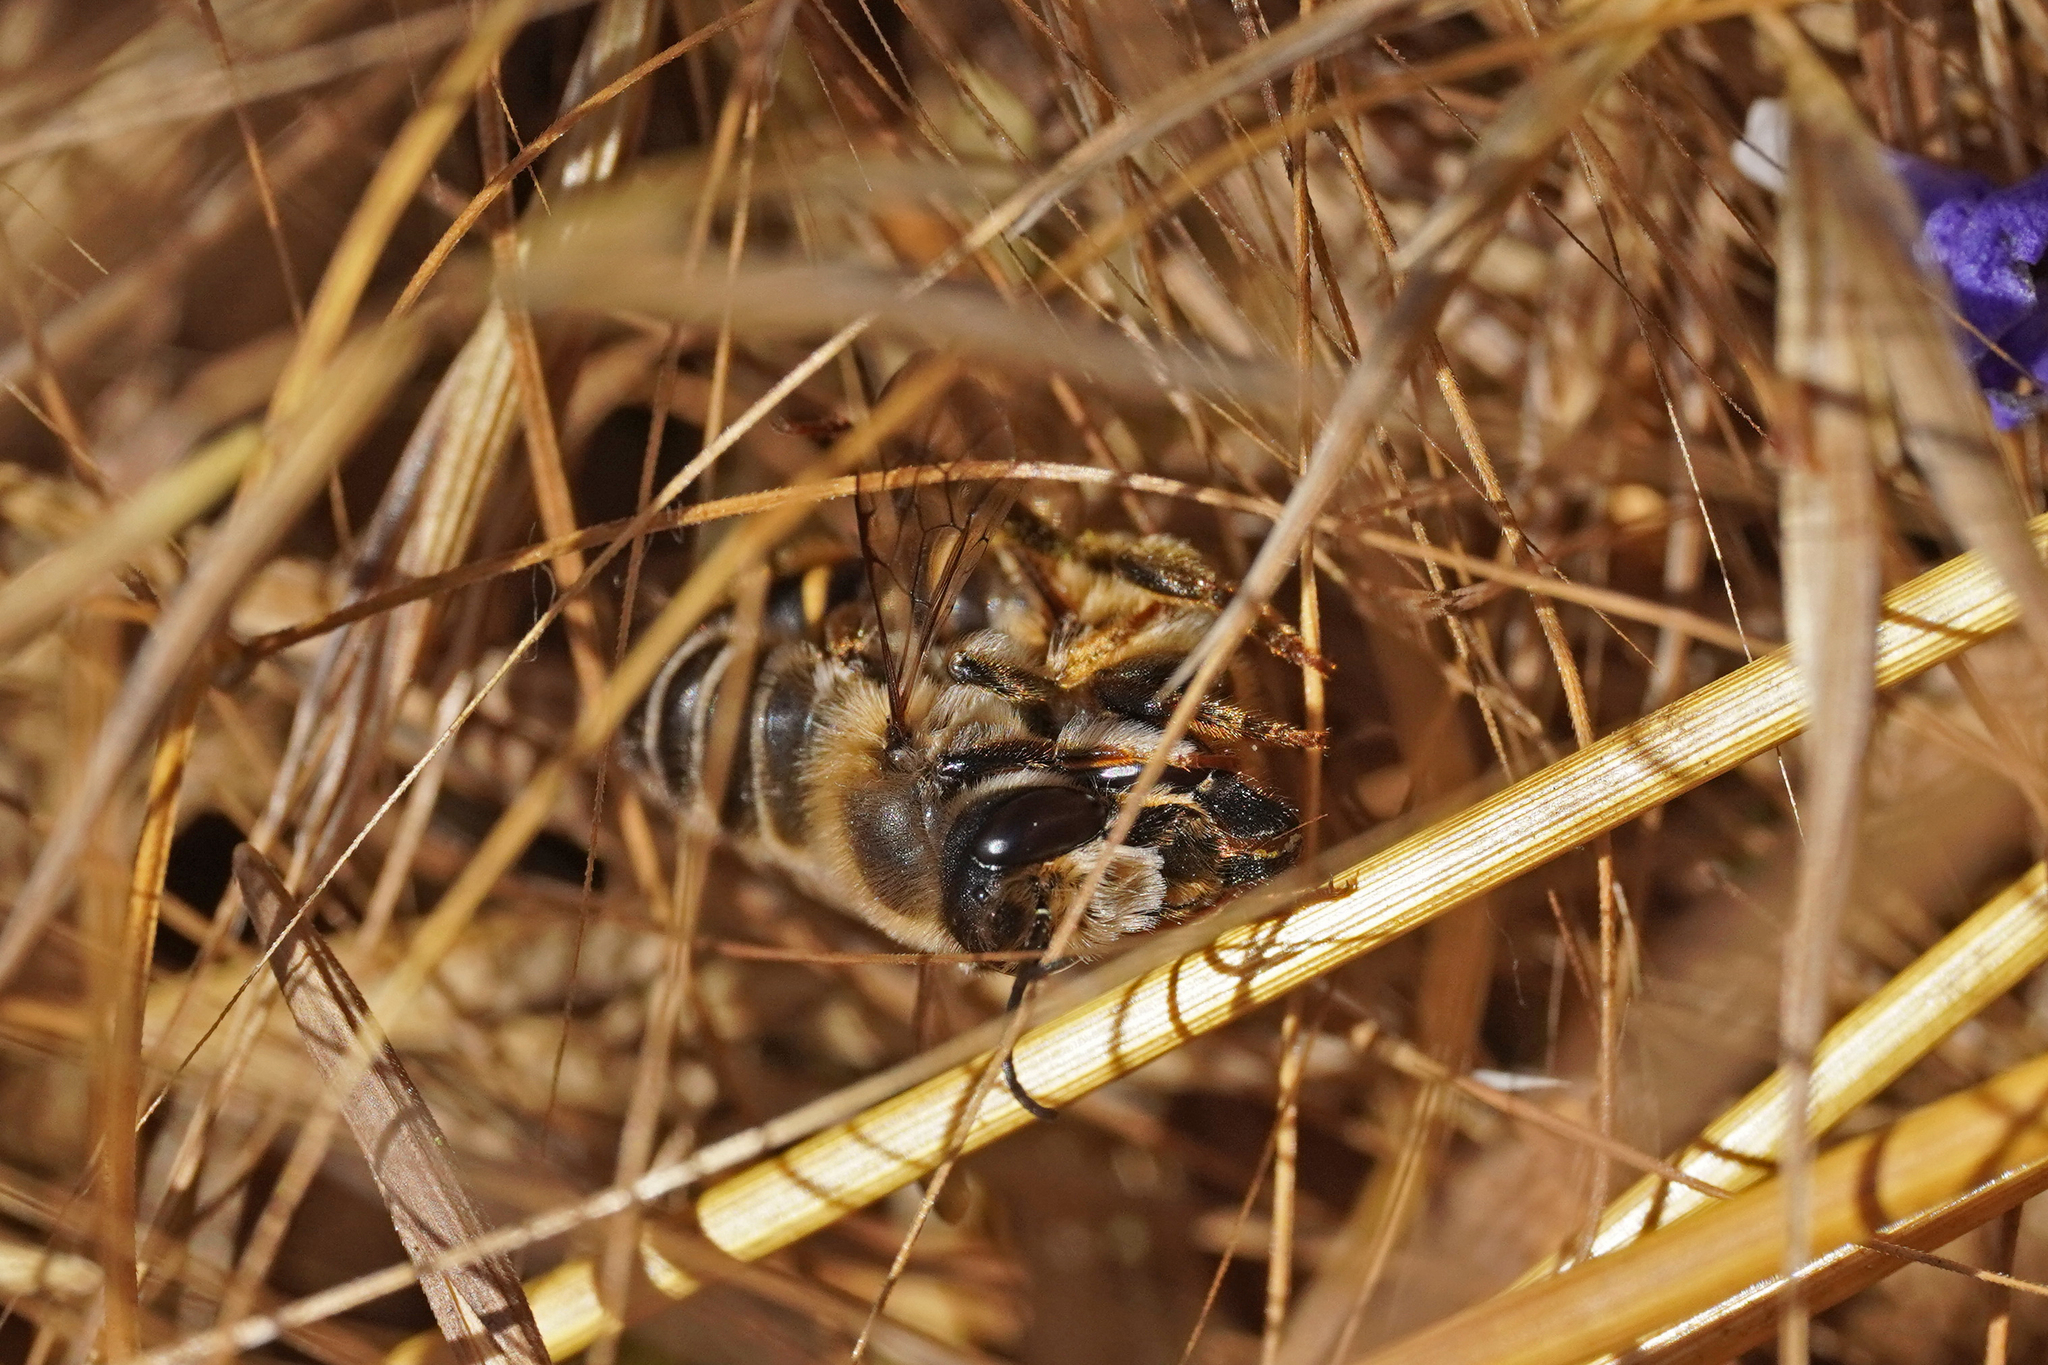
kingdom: Animalia
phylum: Arthropoda
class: Insecta
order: Hymenoptera
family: Megachilidae
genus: Megachile
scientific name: Megachile ericetorum
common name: Leafcutter bee
